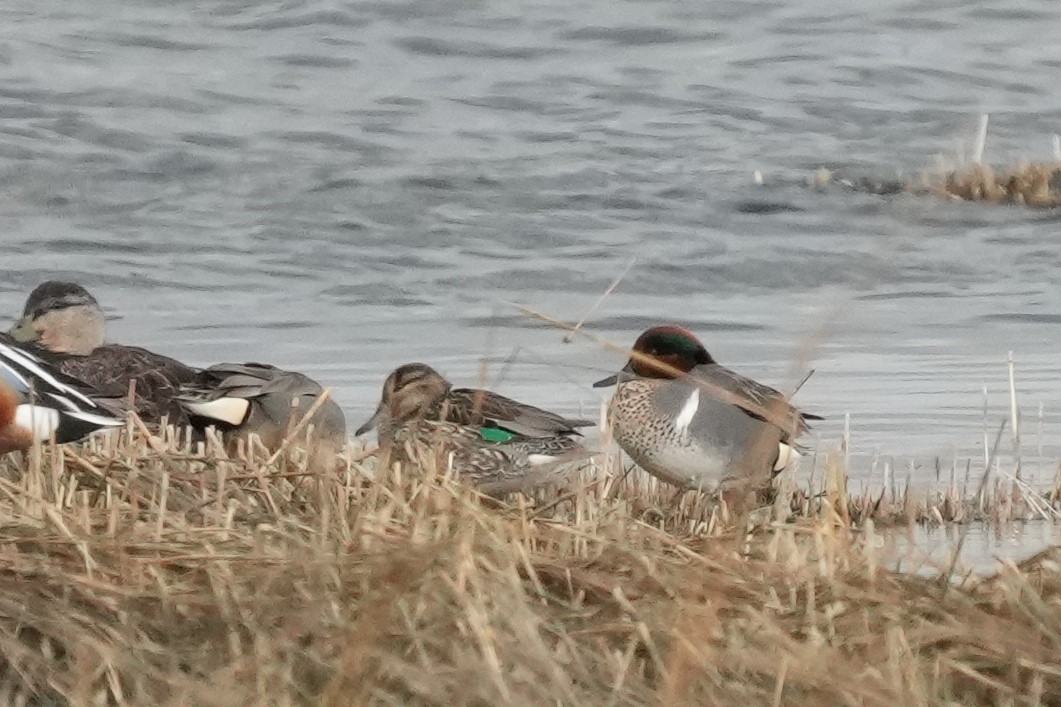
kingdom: Animalia
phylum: Chordata
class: Aves
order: Anseriformes
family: Anatidae
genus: Anas
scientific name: Anas crecca
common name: Eurasian teal
